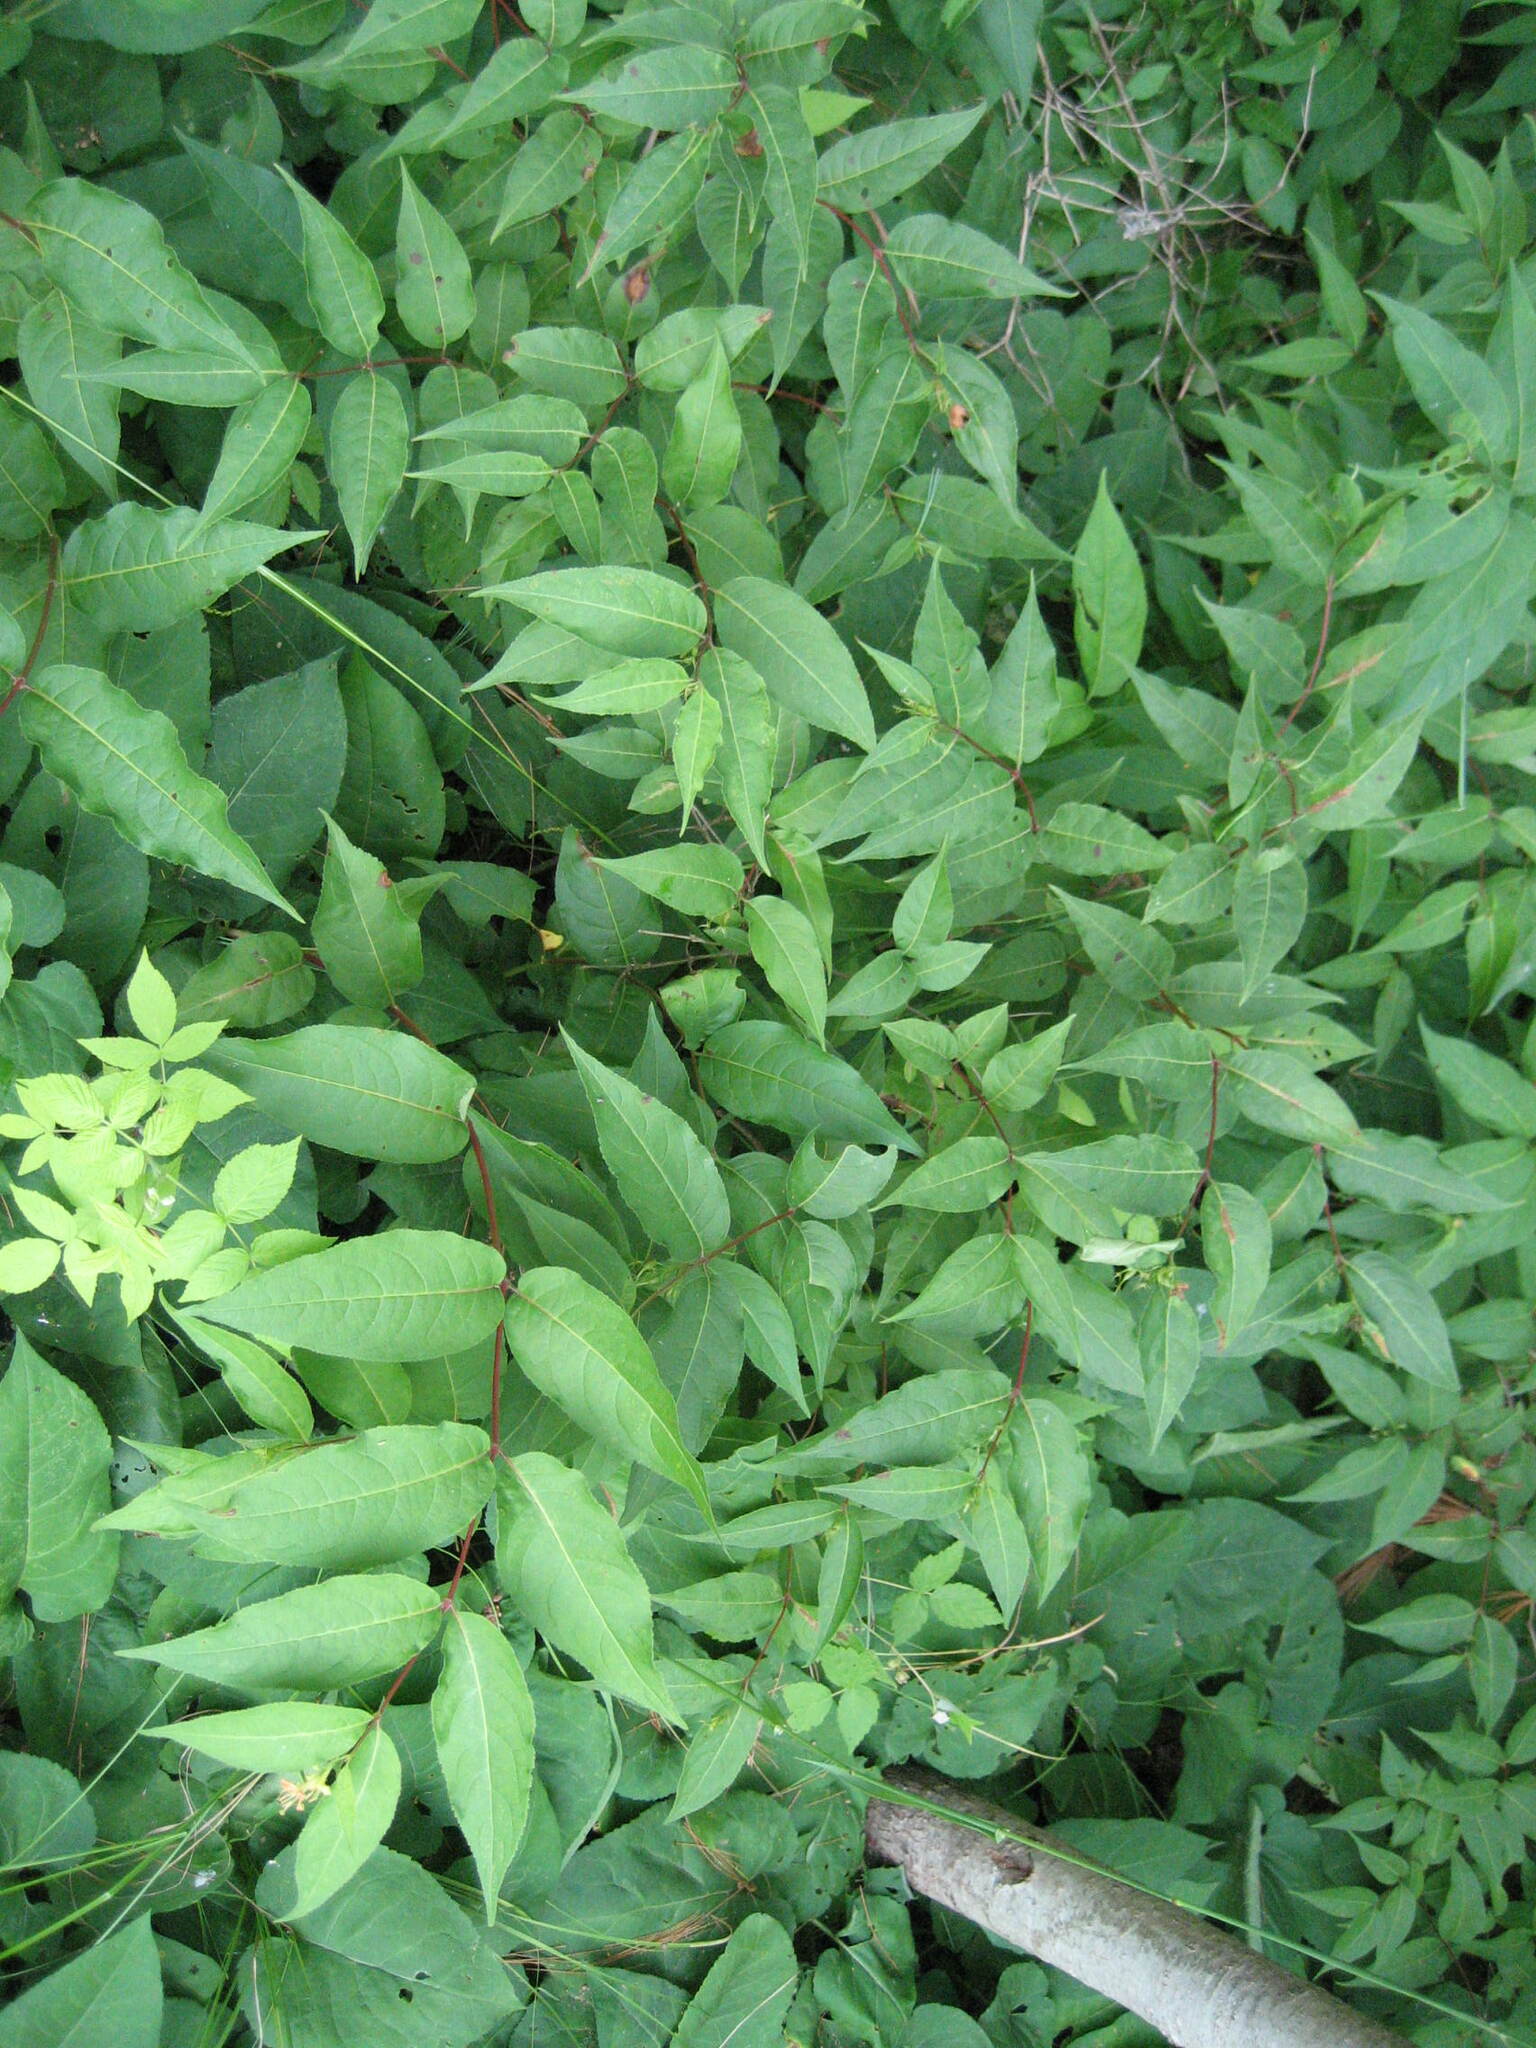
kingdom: Plantae
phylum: Tracheophyta
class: Magnoliopsida
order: Dipsacales
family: Caprifoliaceae
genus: Diervilla
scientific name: Diervilla lonicera
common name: Bush-honeysuckle
